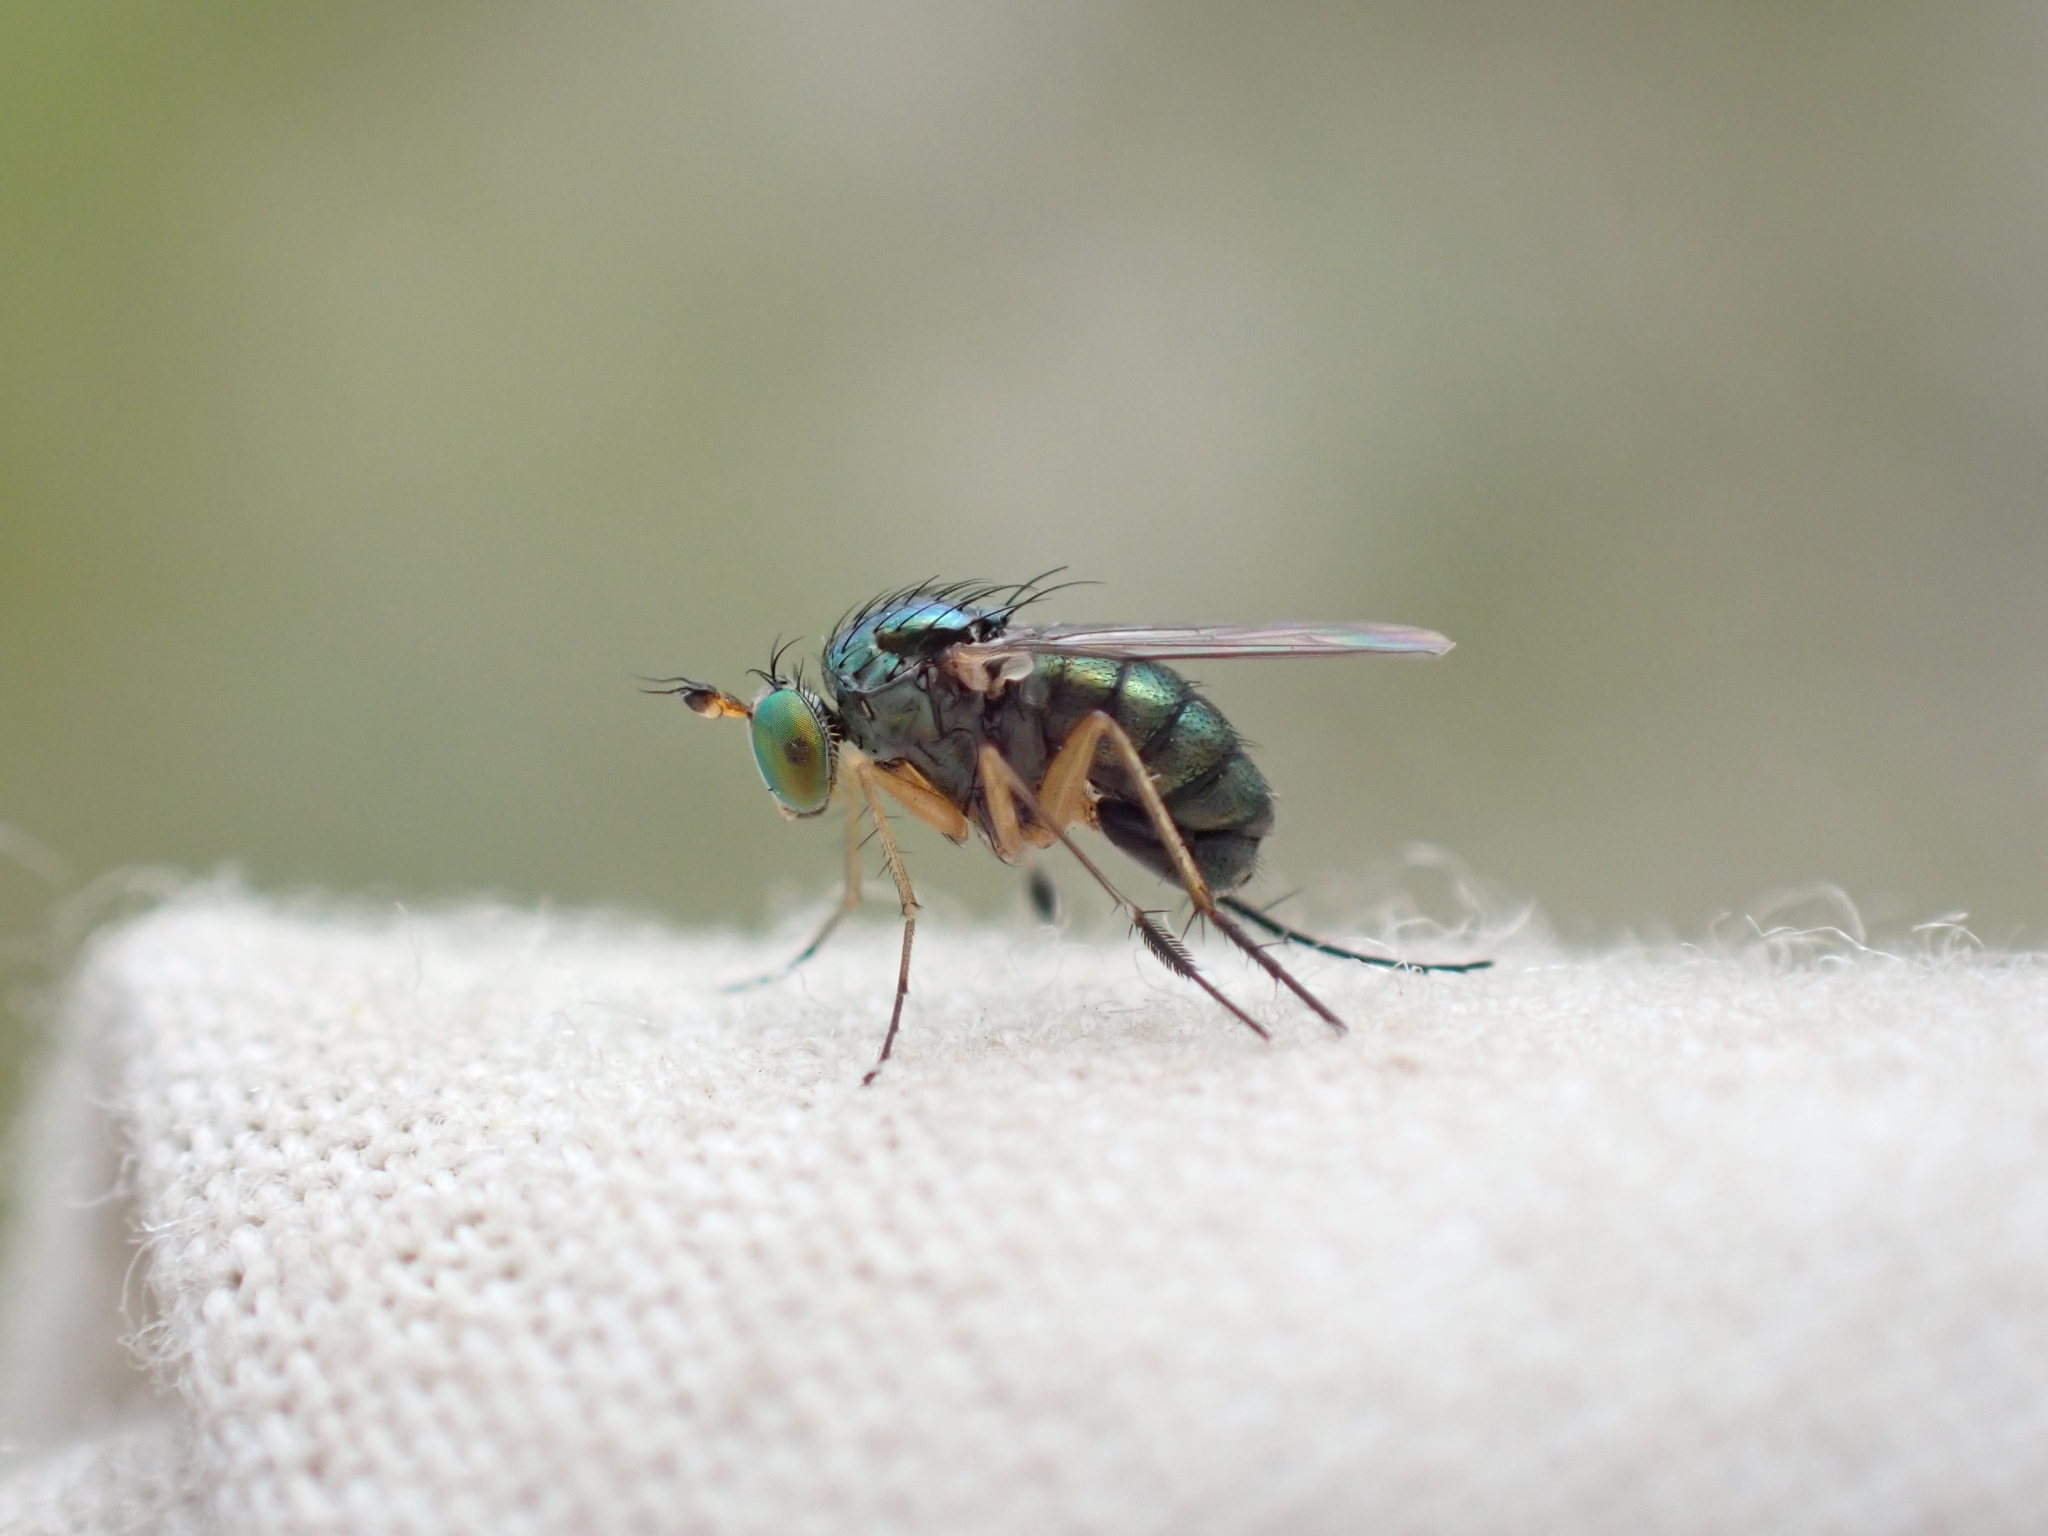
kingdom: Animalia
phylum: Arthropoda
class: Insecta
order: Diptera
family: Dolichopodidae
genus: Dolichopus
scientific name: Dolichopus plumipes
